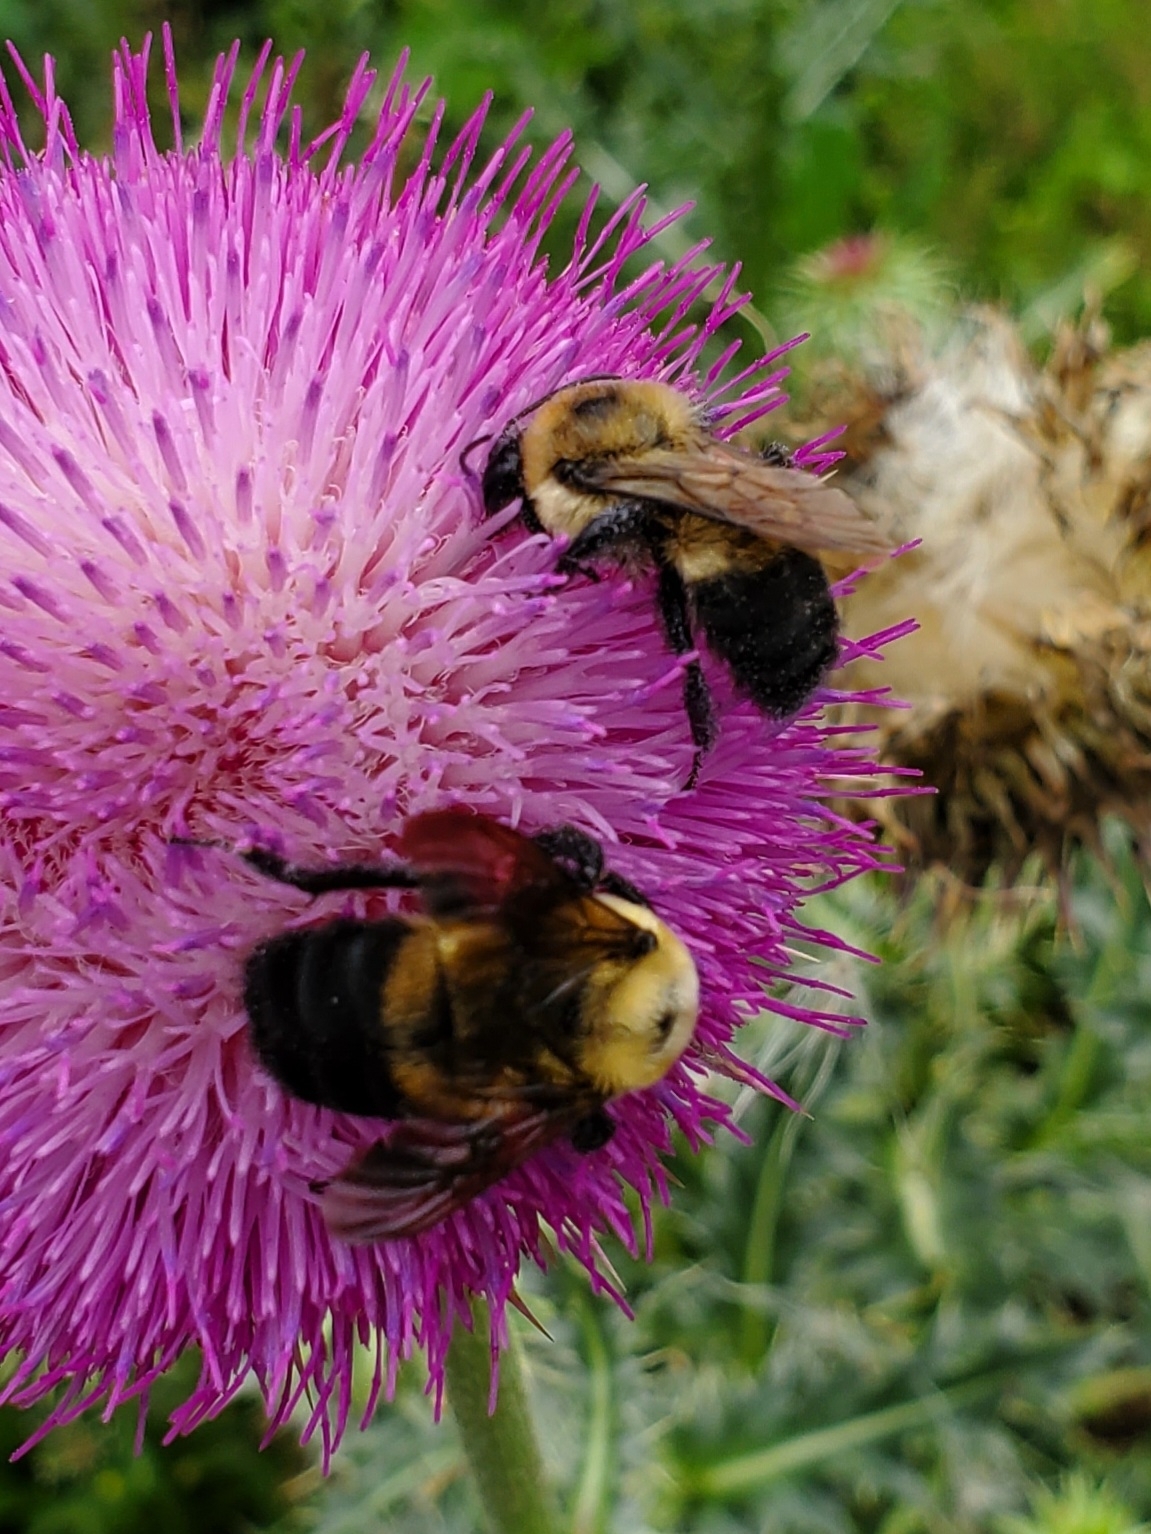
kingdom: Animalia
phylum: Arthropoda
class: Insecta
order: Hymenoptera
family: Apidae
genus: Bombus
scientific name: Bombus griseocollis
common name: Brown-belted bumble bee
